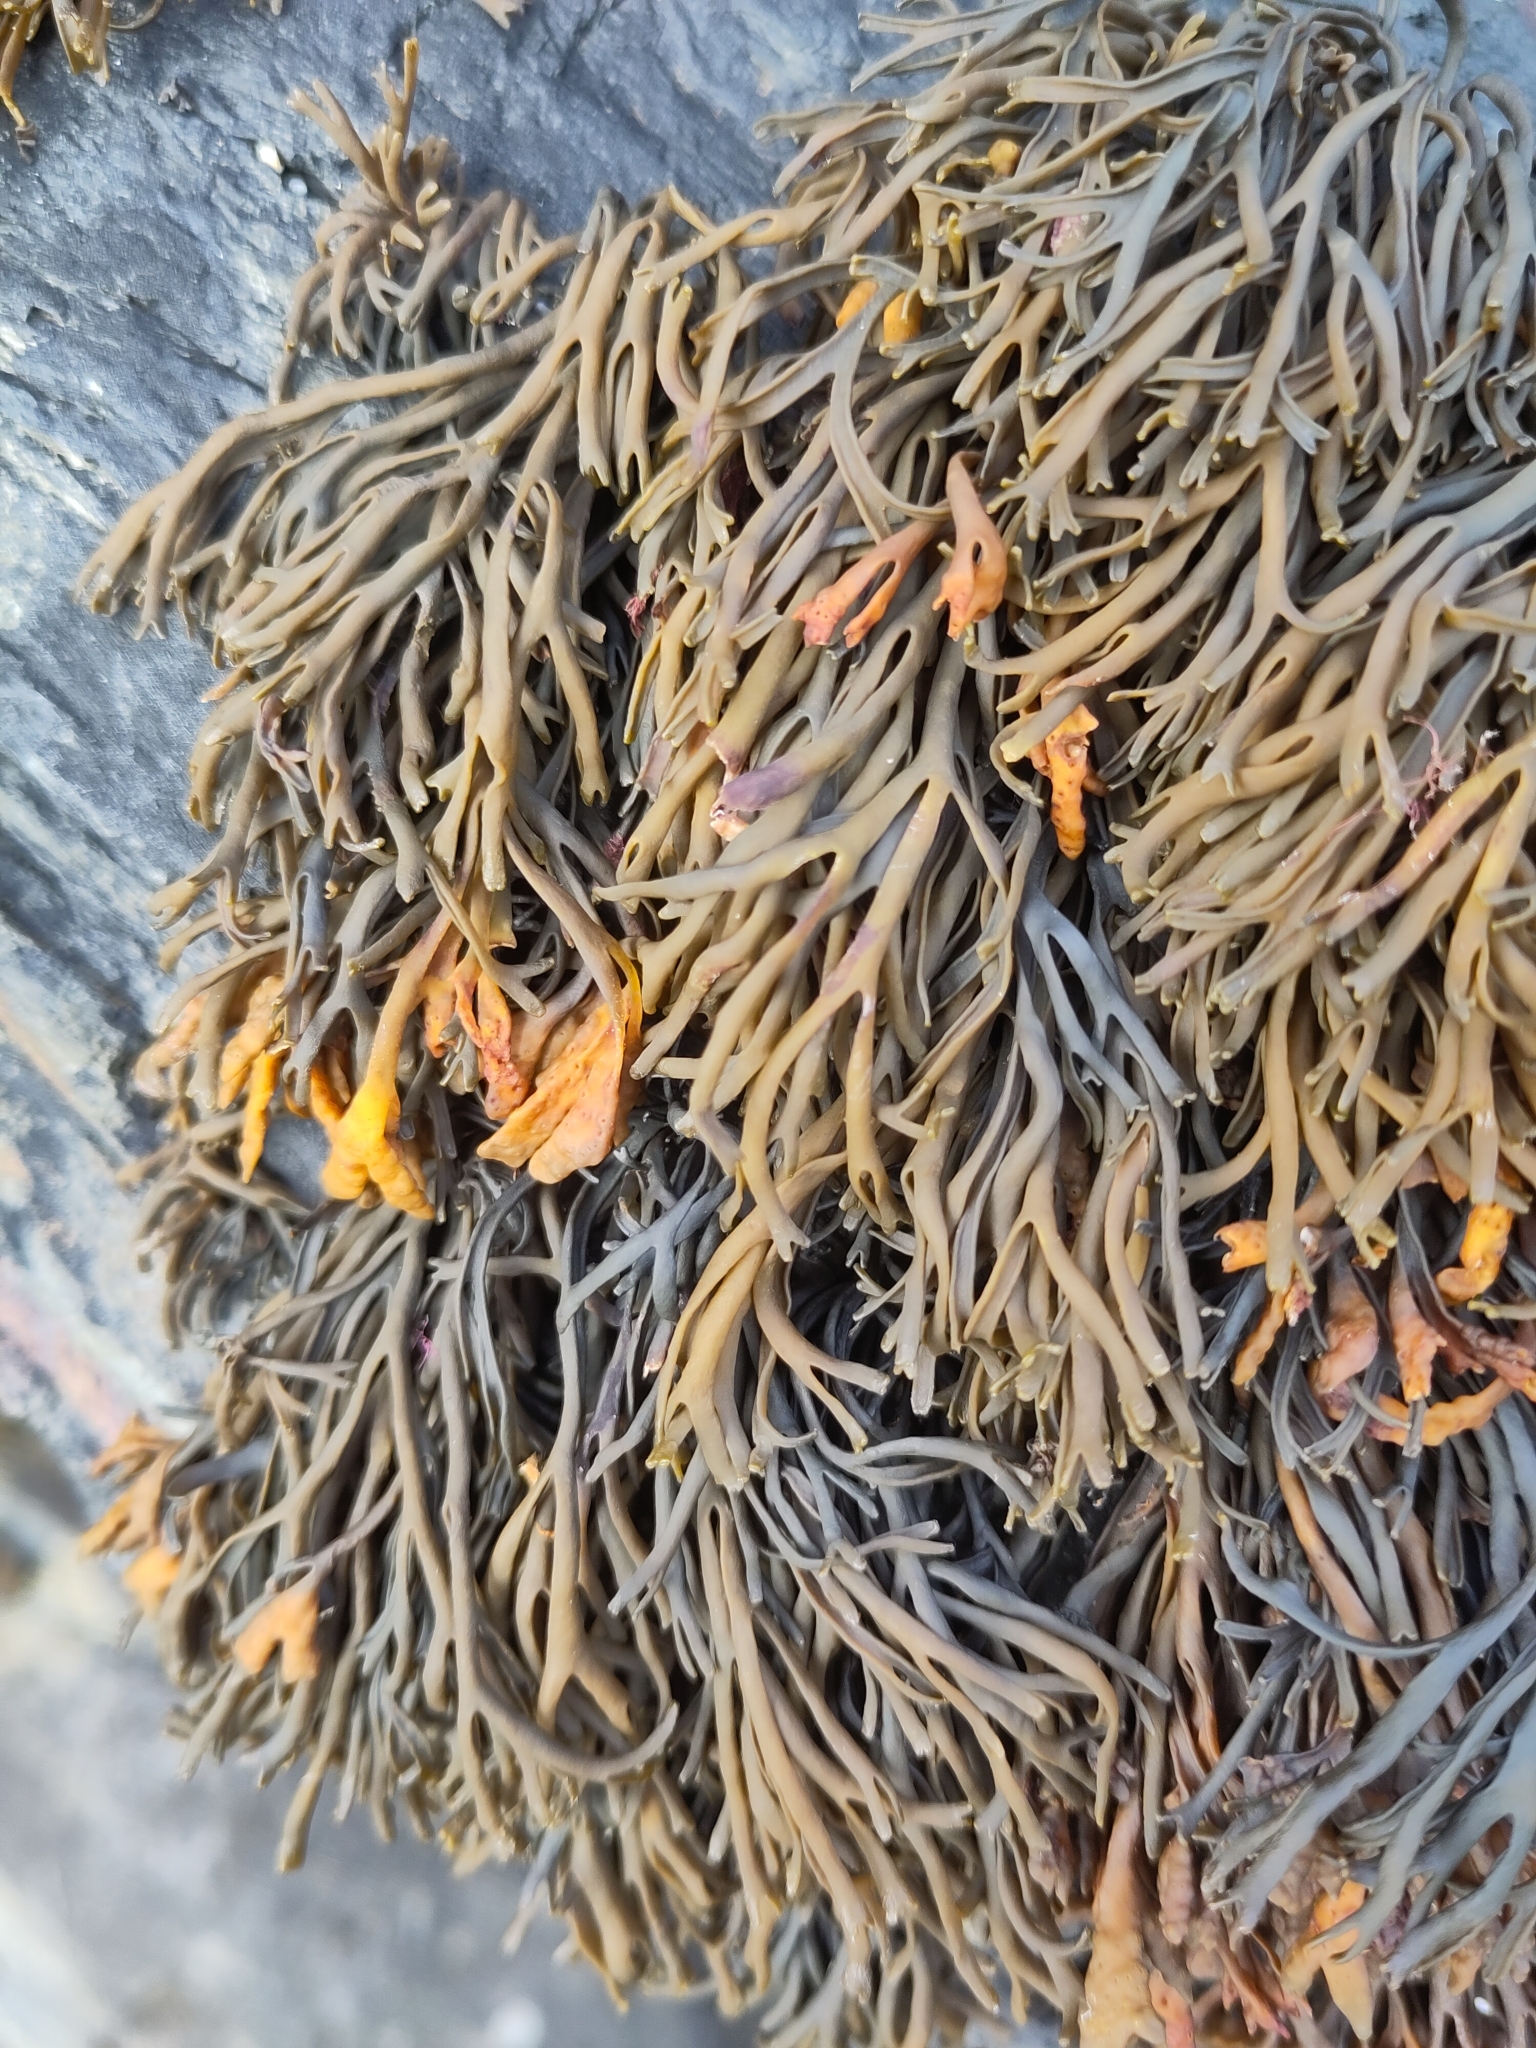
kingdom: Chromista
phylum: Ochrophyta
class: Phaeophyceae
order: Fucales
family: Fucaceae
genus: Pelvetia
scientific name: Pelvetia canaliculata
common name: Channelled wrack
